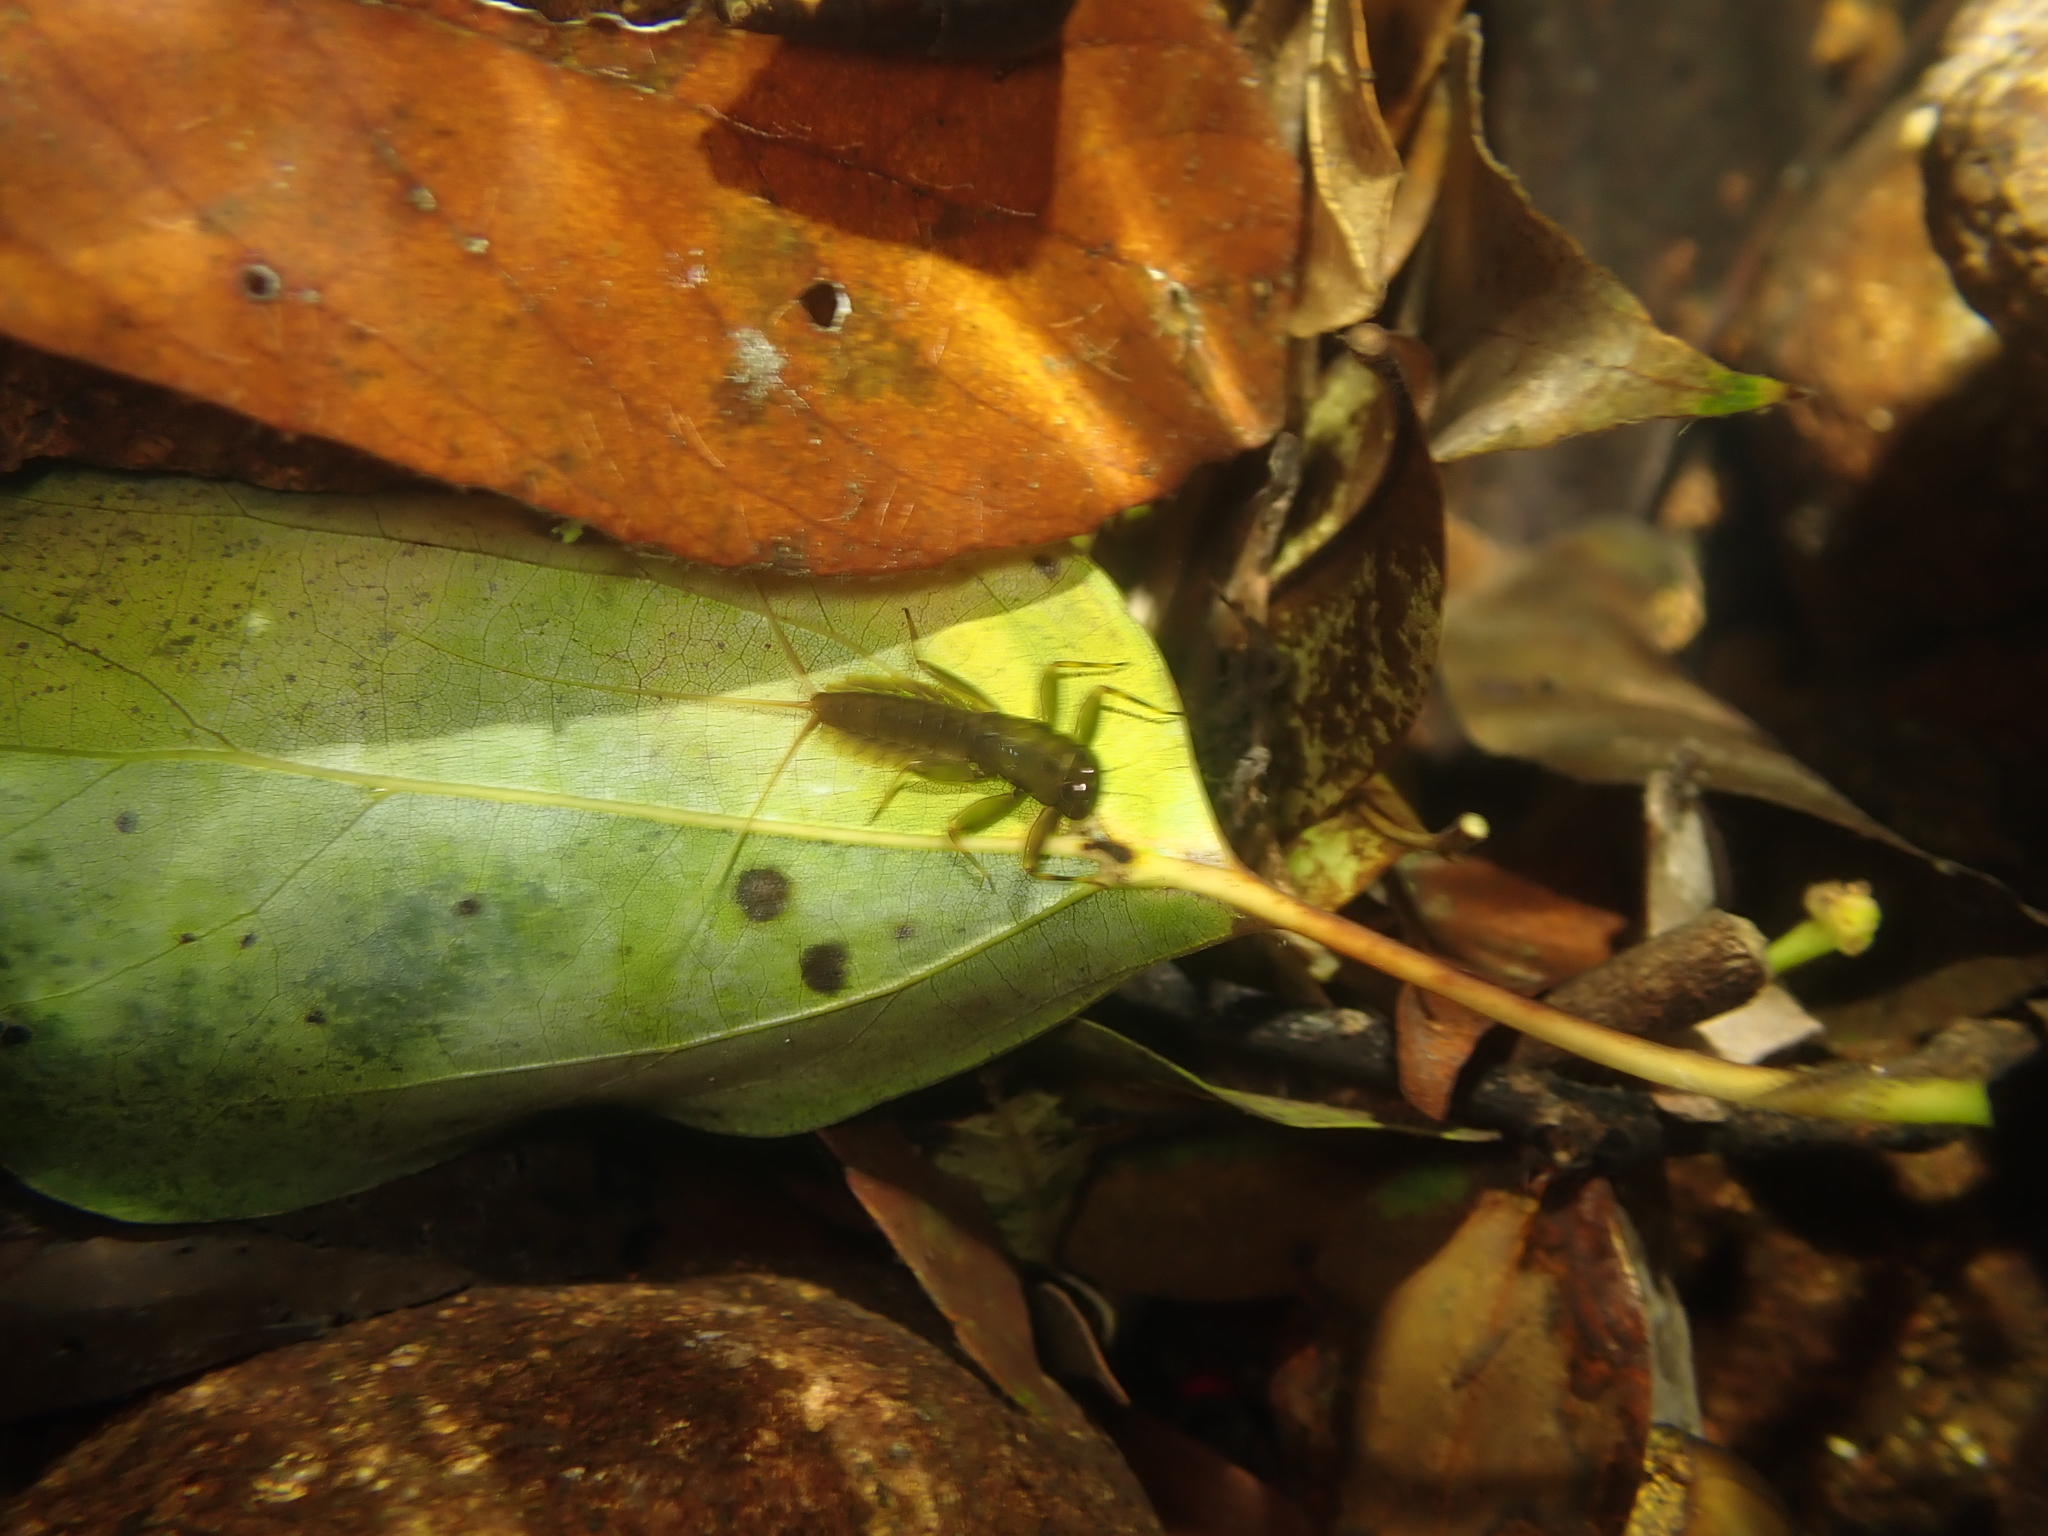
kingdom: Animalia
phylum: Arthropoda
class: Insecta
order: Ephemeroptera
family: Heptageniidae
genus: Paegniodes
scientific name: Paegniodes cupulatus
